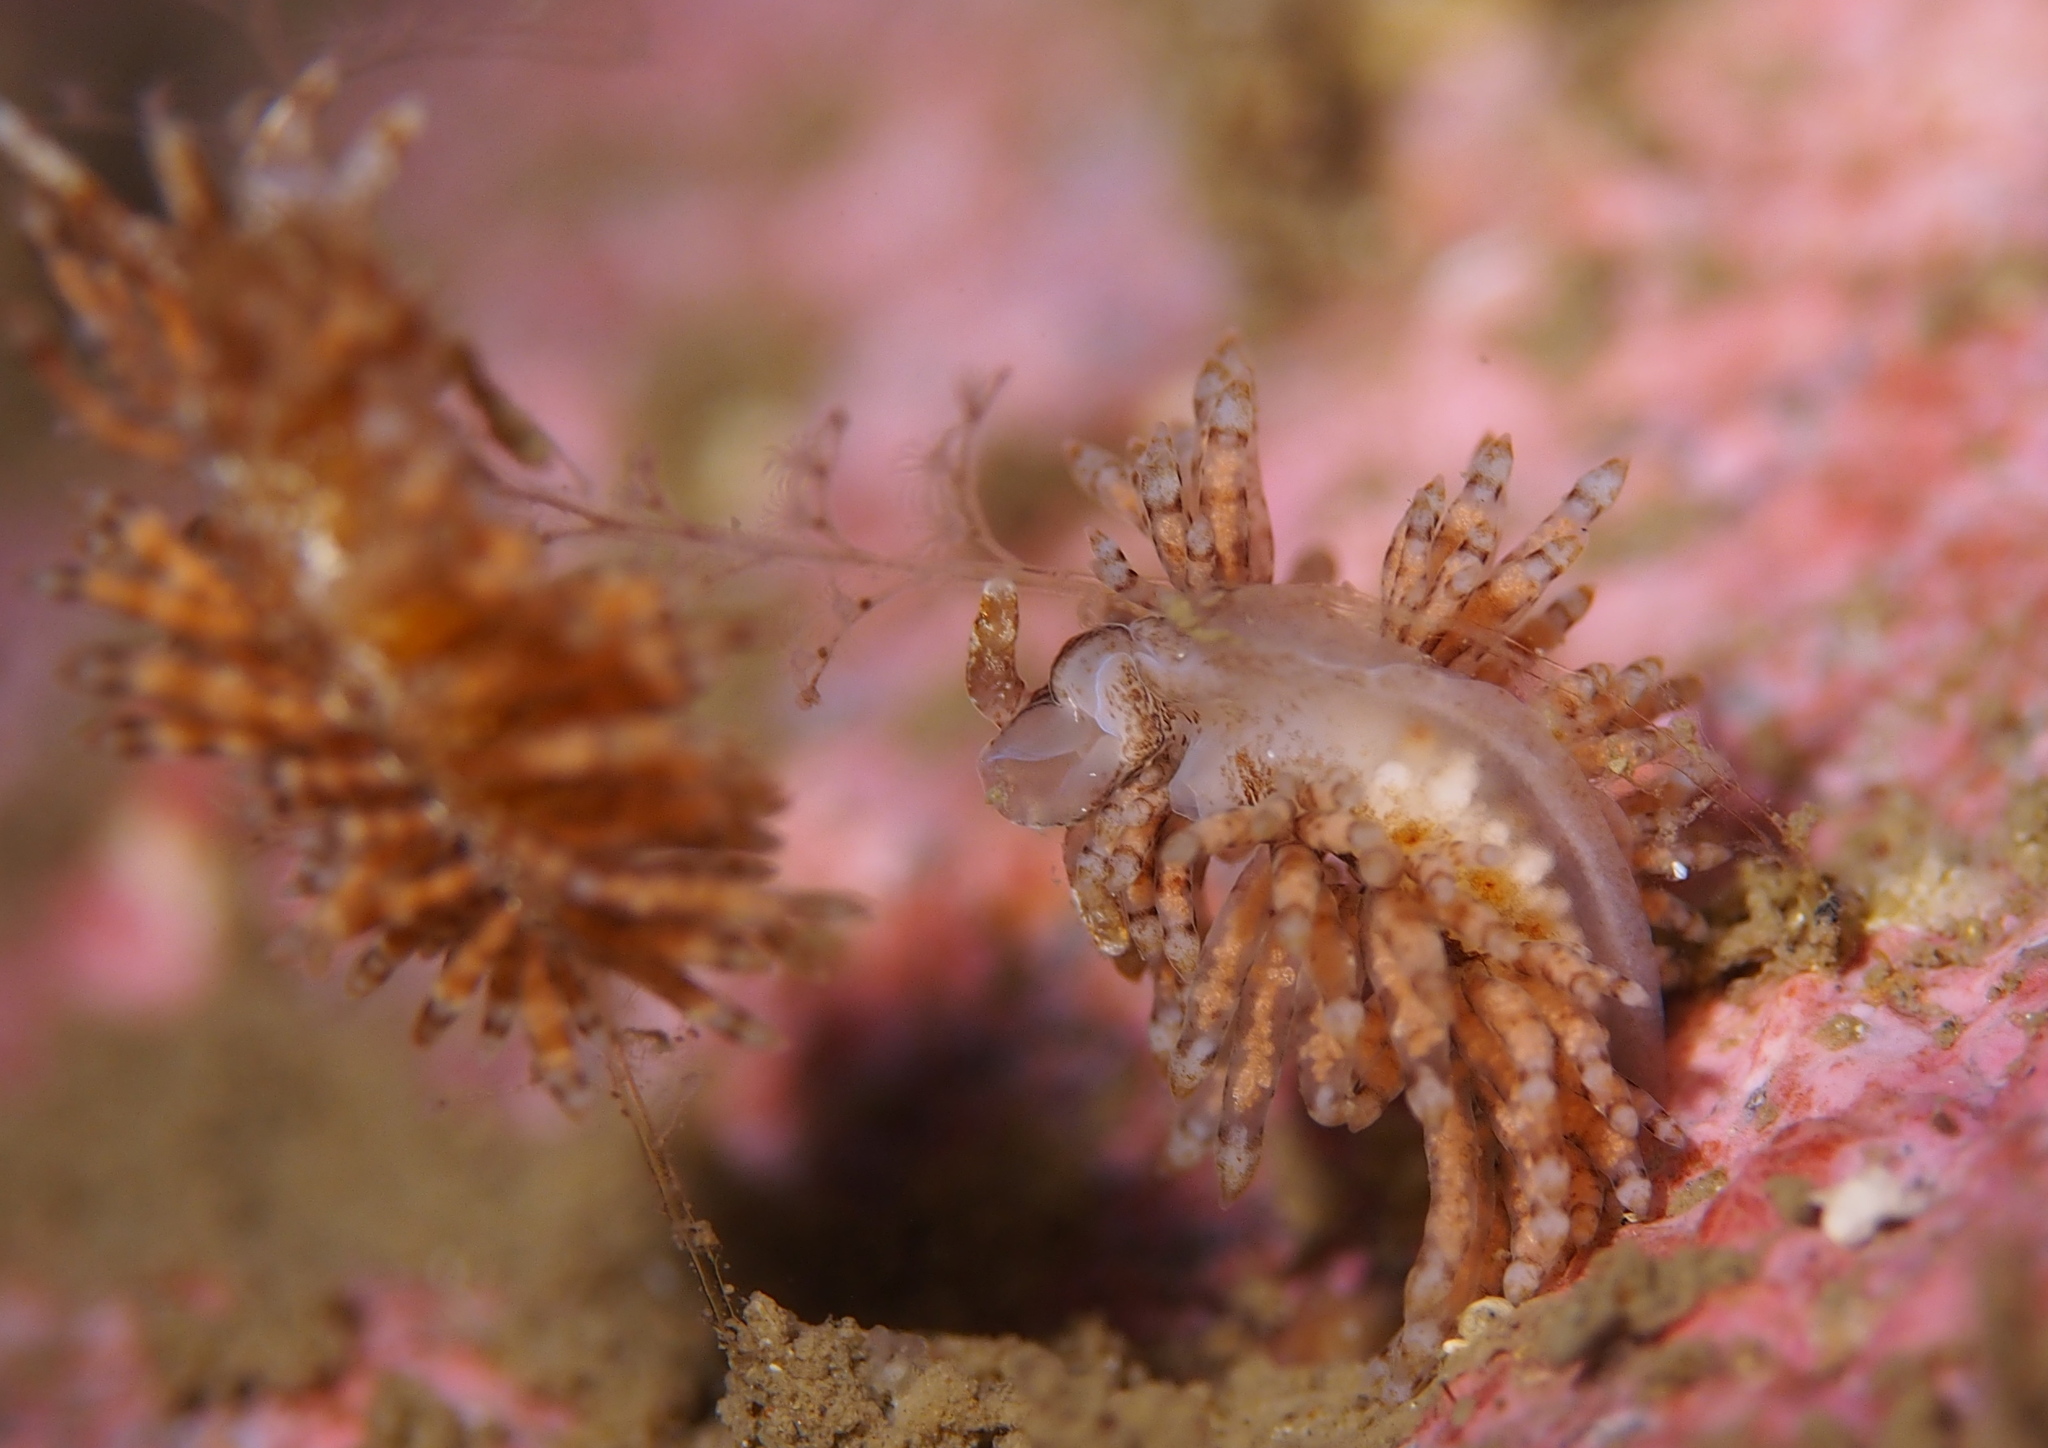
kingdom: Animalia
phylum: Mollusca
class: Gastropoda
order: Nudibranchia
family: Eubranchidae
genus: Eubranchus
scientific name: Eubranchus vittatus
